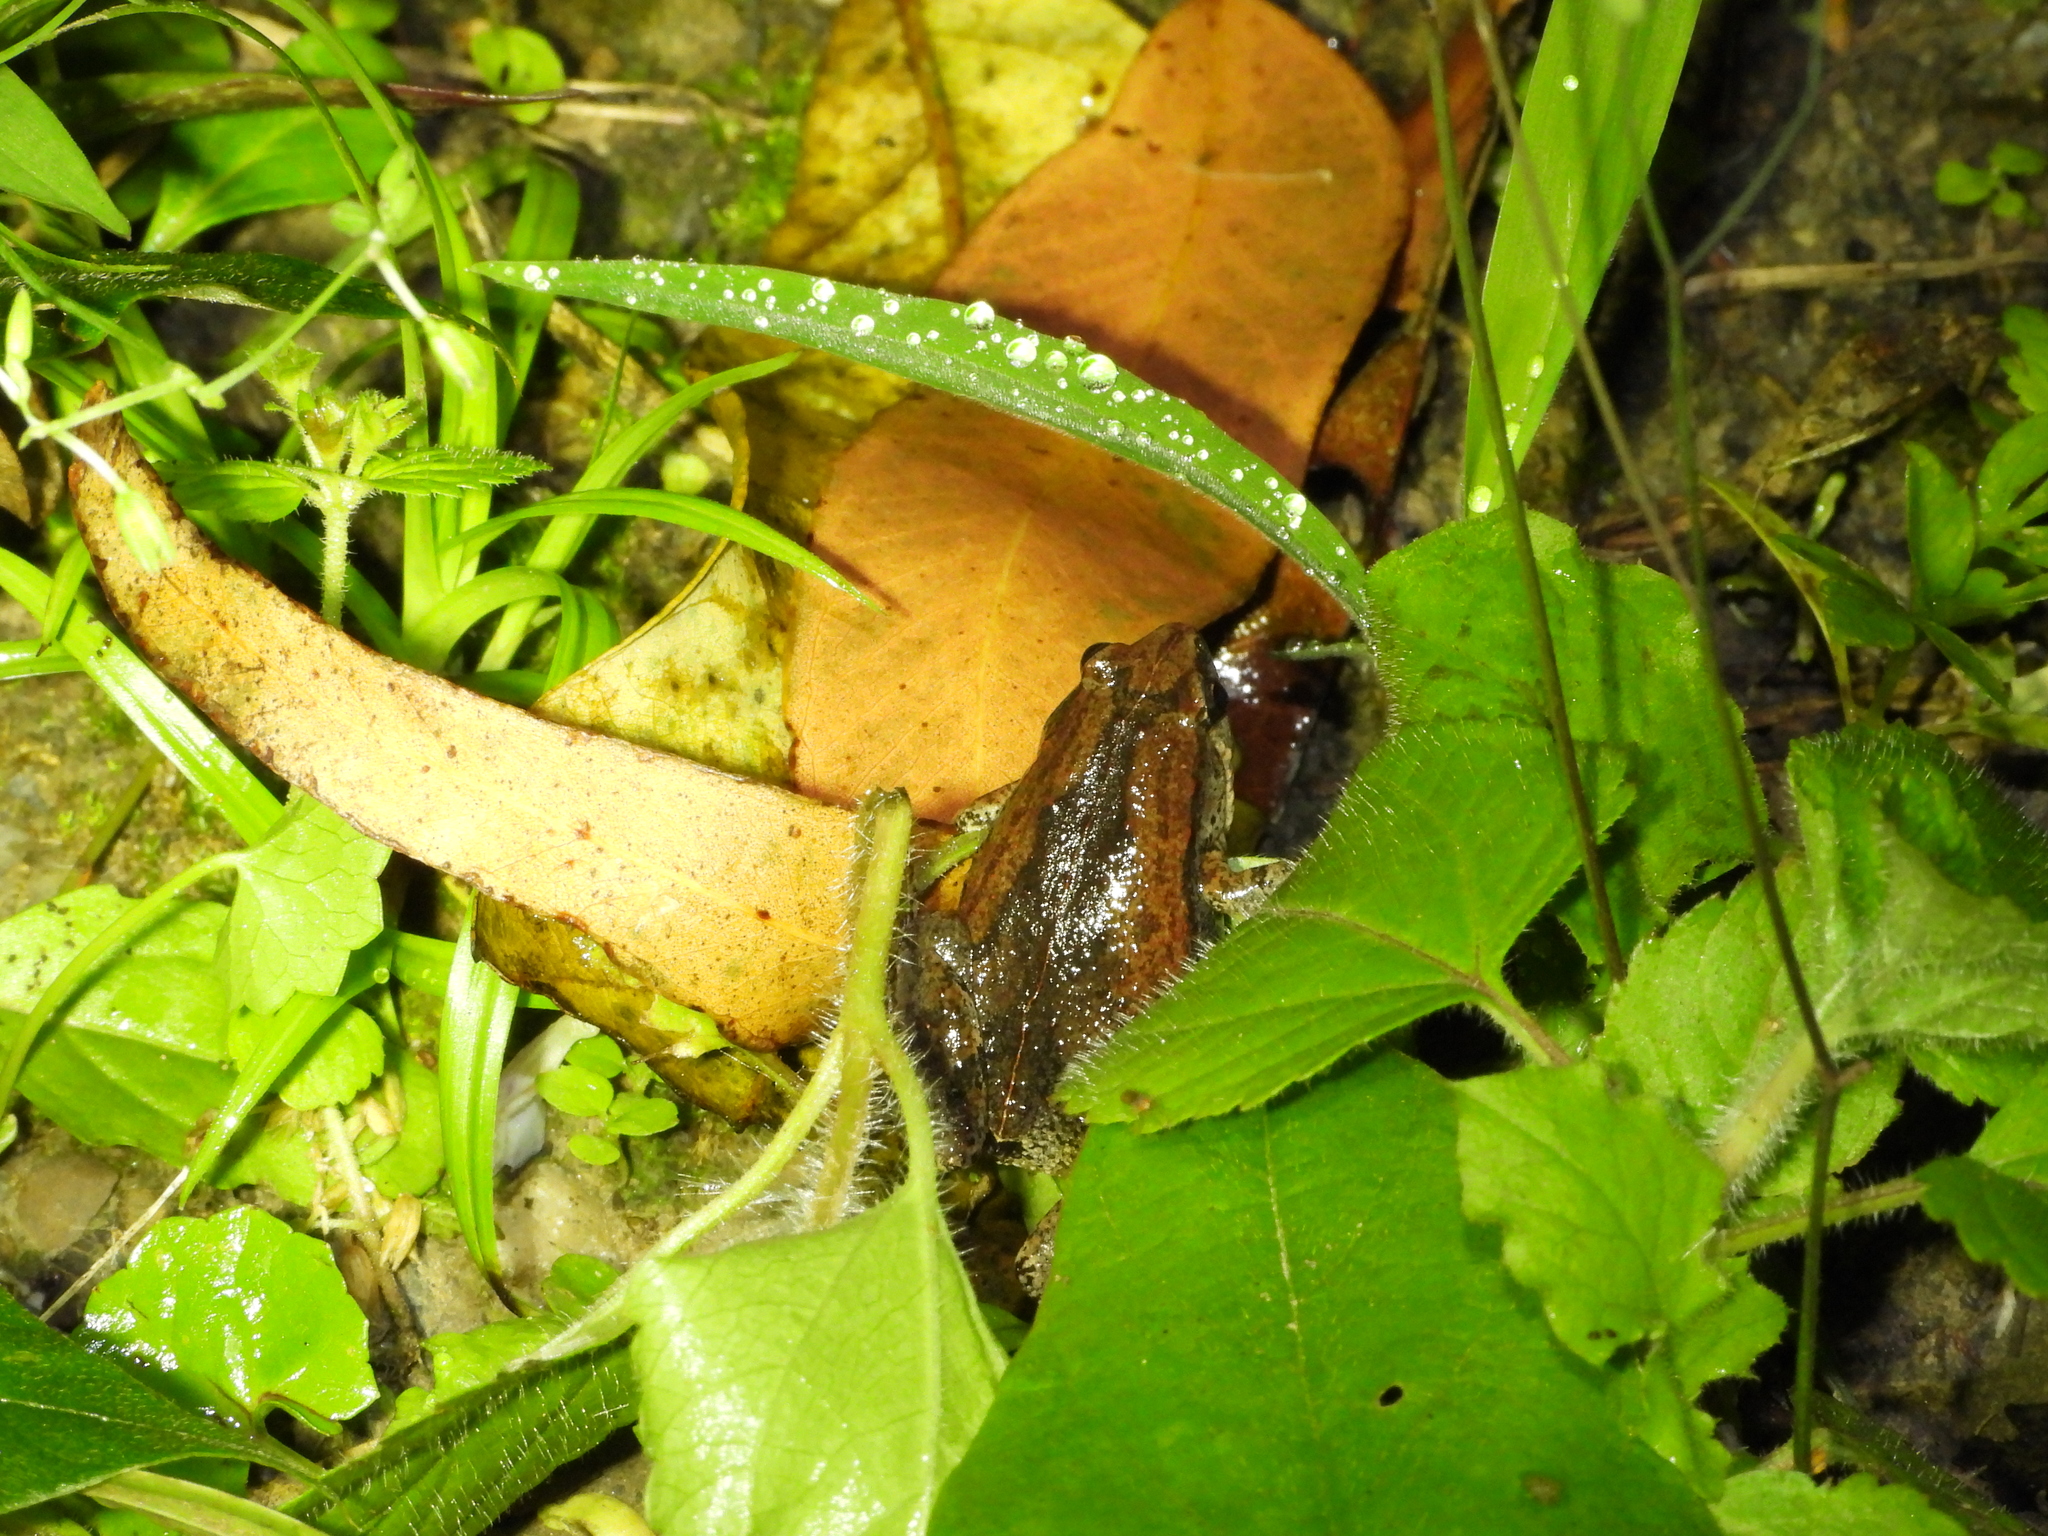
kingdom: Animalia
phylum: Chordata
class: Amphibia
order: Anura
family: Microhylidae
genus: Microhyla
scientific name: Microhyla fissipes
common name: Ornate narrow-mouthed frog
